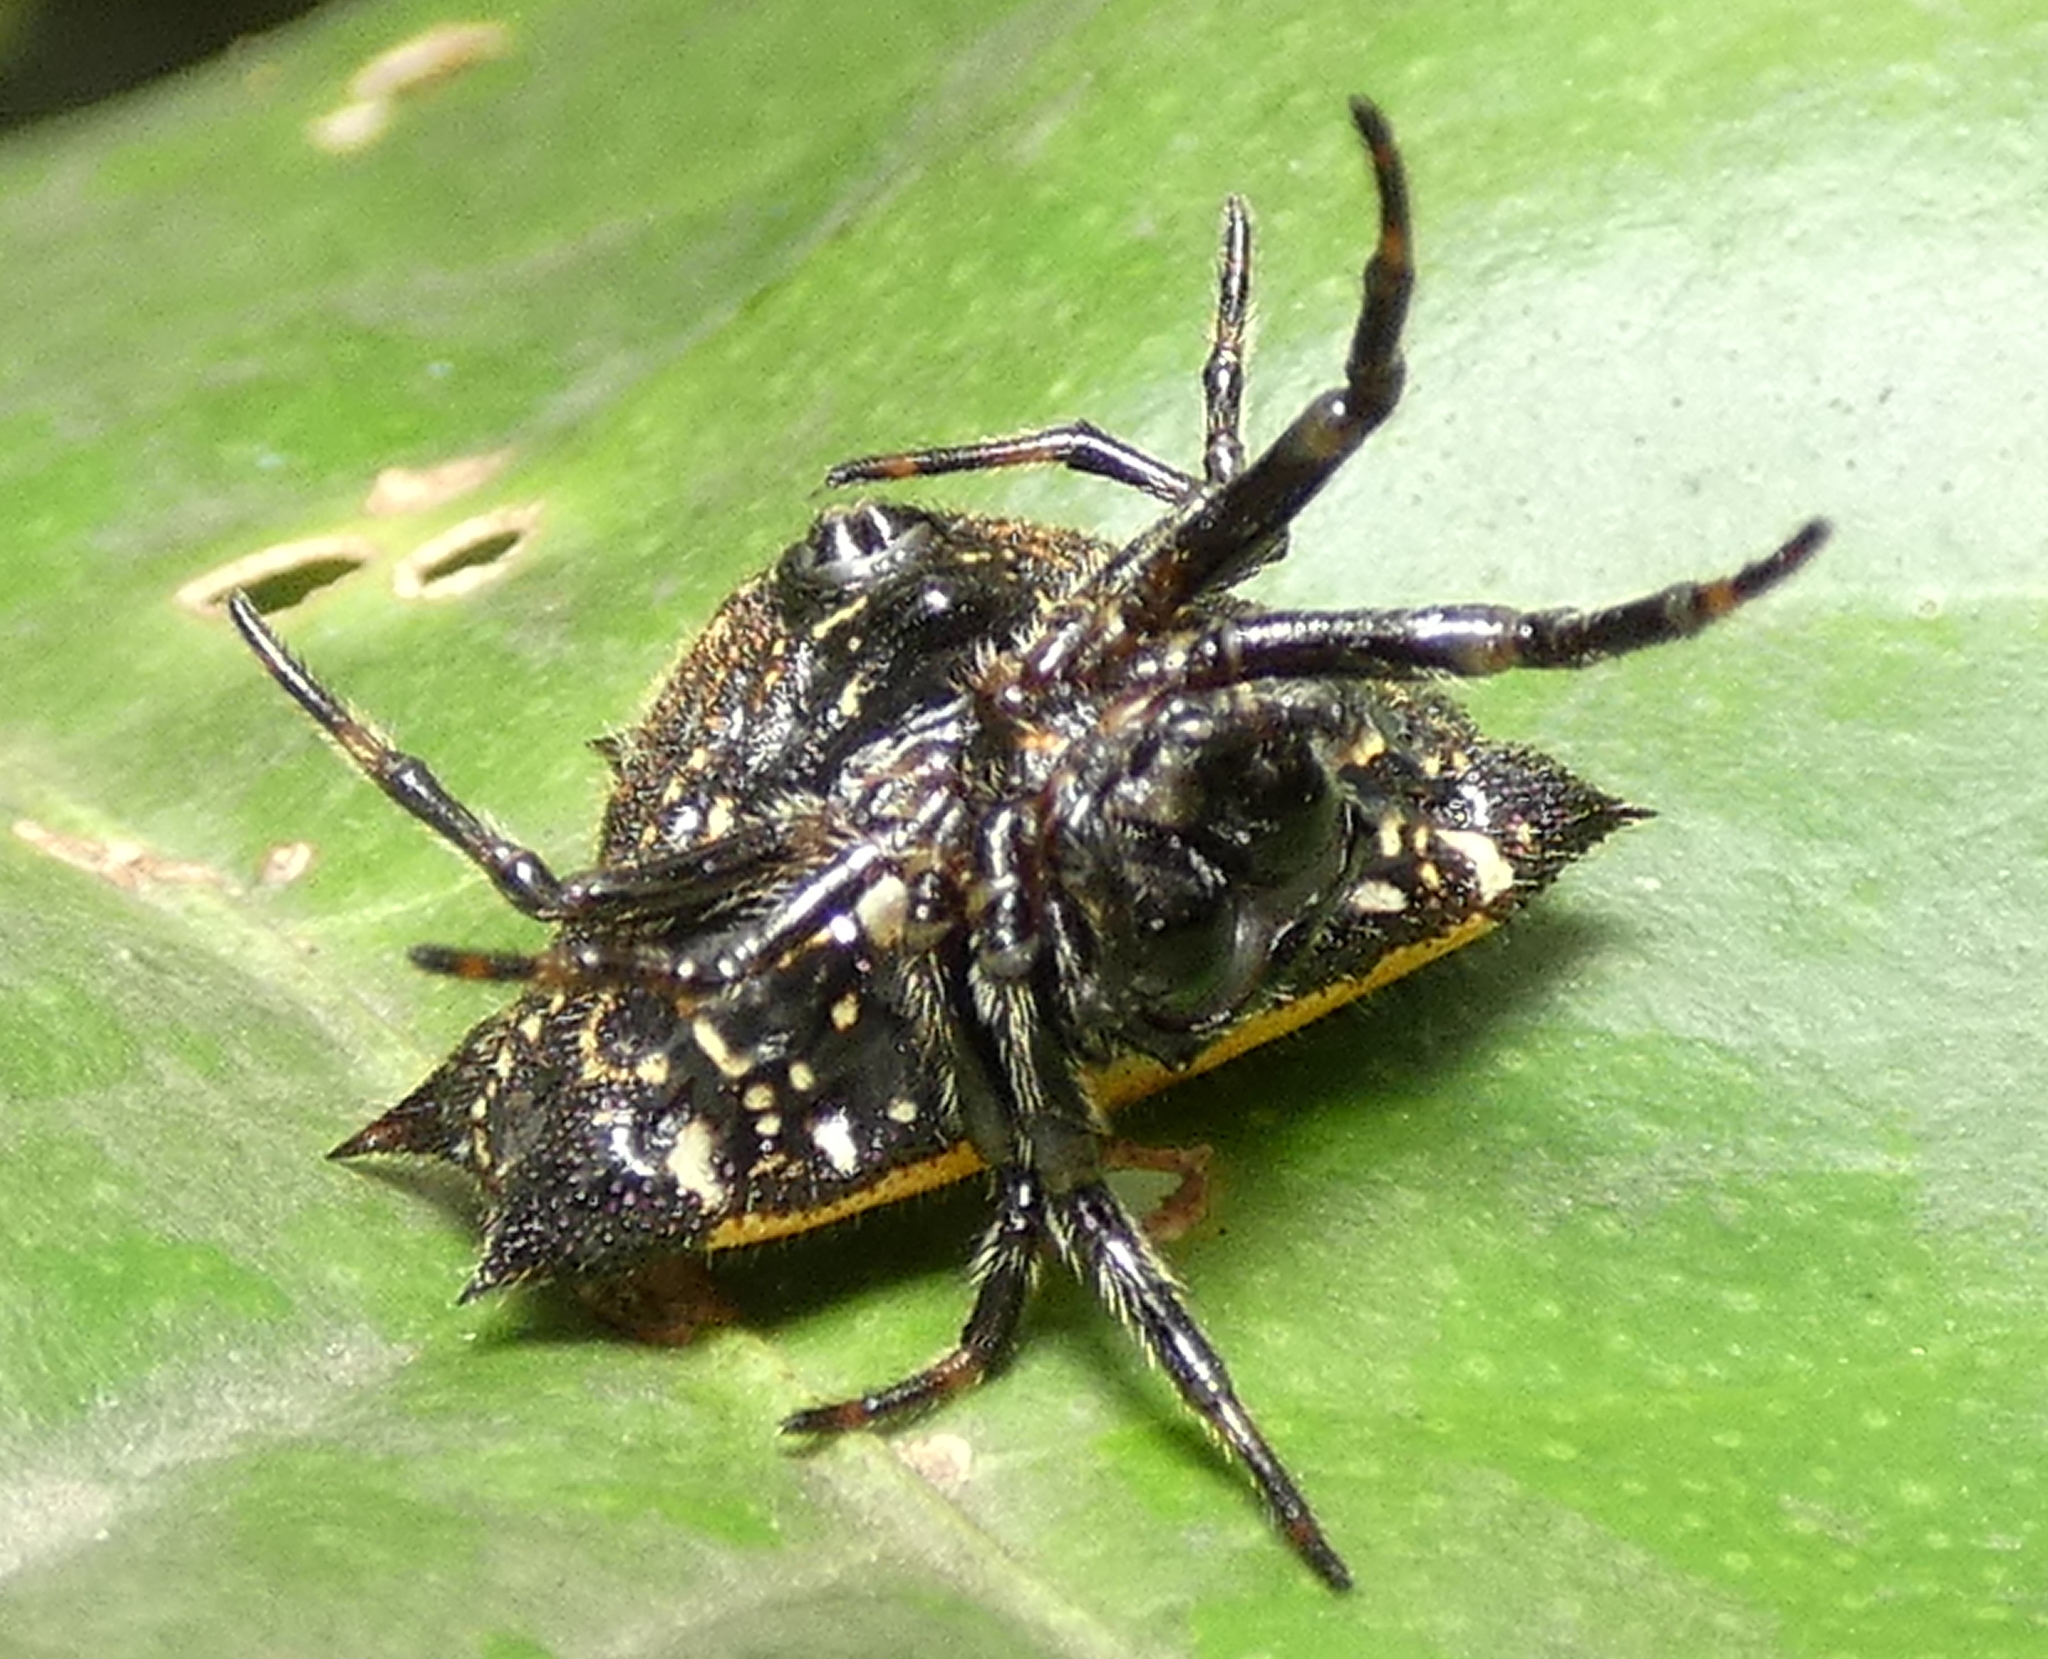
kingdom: Animalia
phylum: Arthropoda
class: Arachnida
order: Araneae
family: Araneidae
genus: Gasteracantha
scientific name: Gasteracantha cancriformis
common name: Orb weavers
